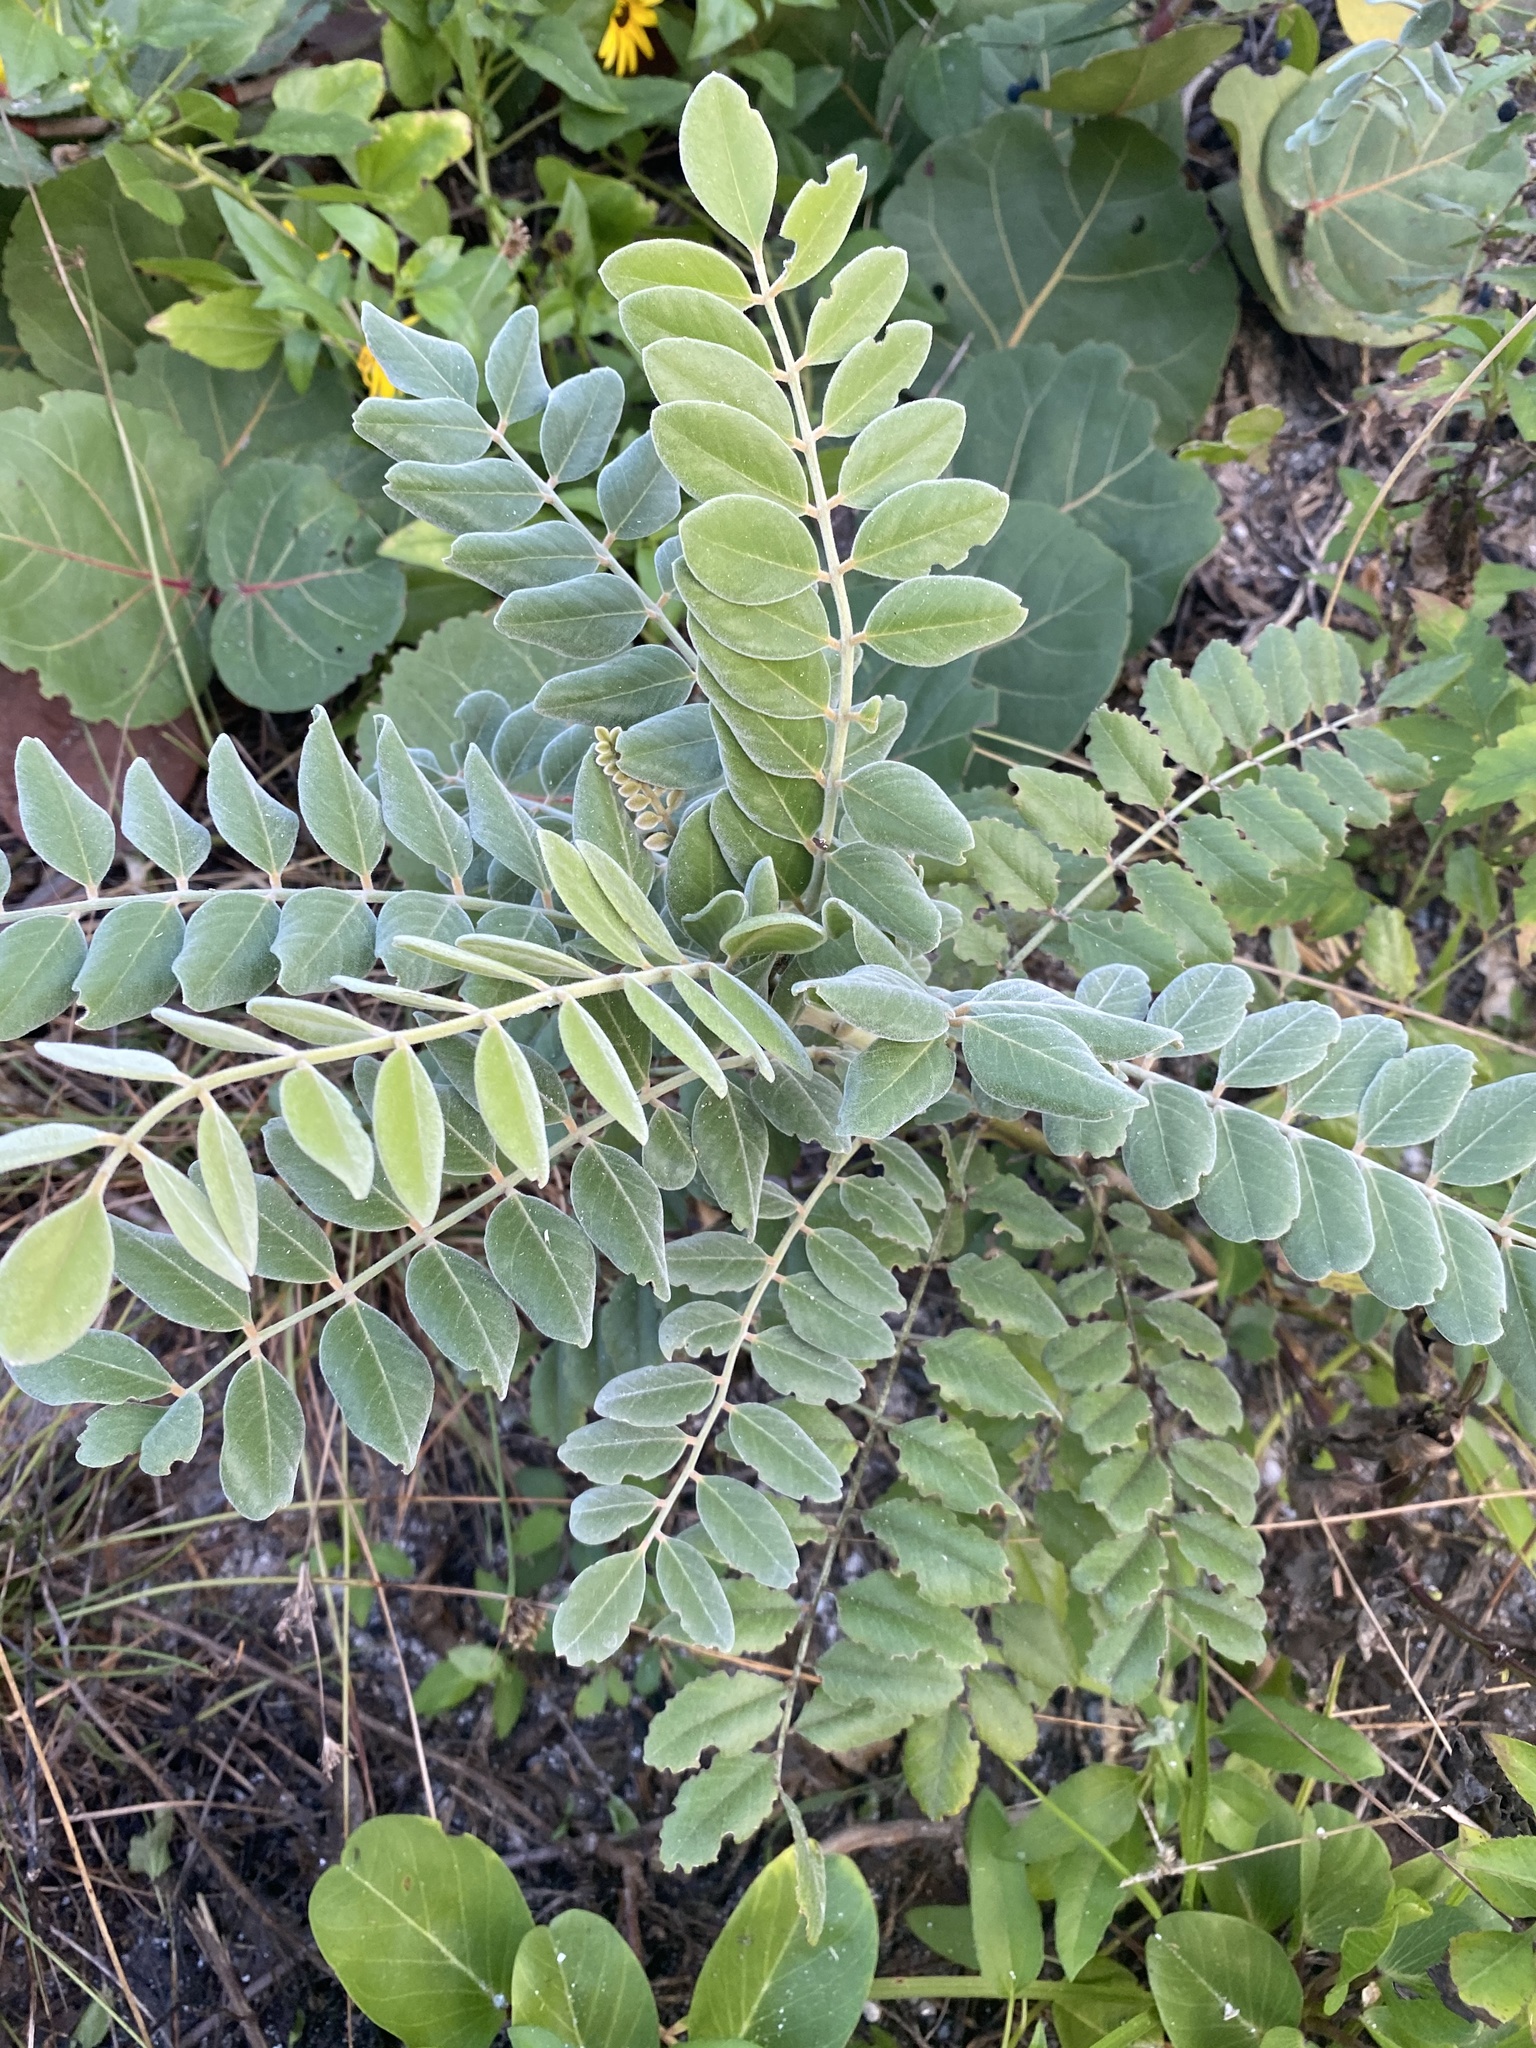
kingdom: Plantae
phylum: Tracheophyta
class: Magnoliopsida
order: Fabales
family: Fabaceae
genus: Sophora
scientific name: Sophora tomentosa
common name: Yellow necklacepod
